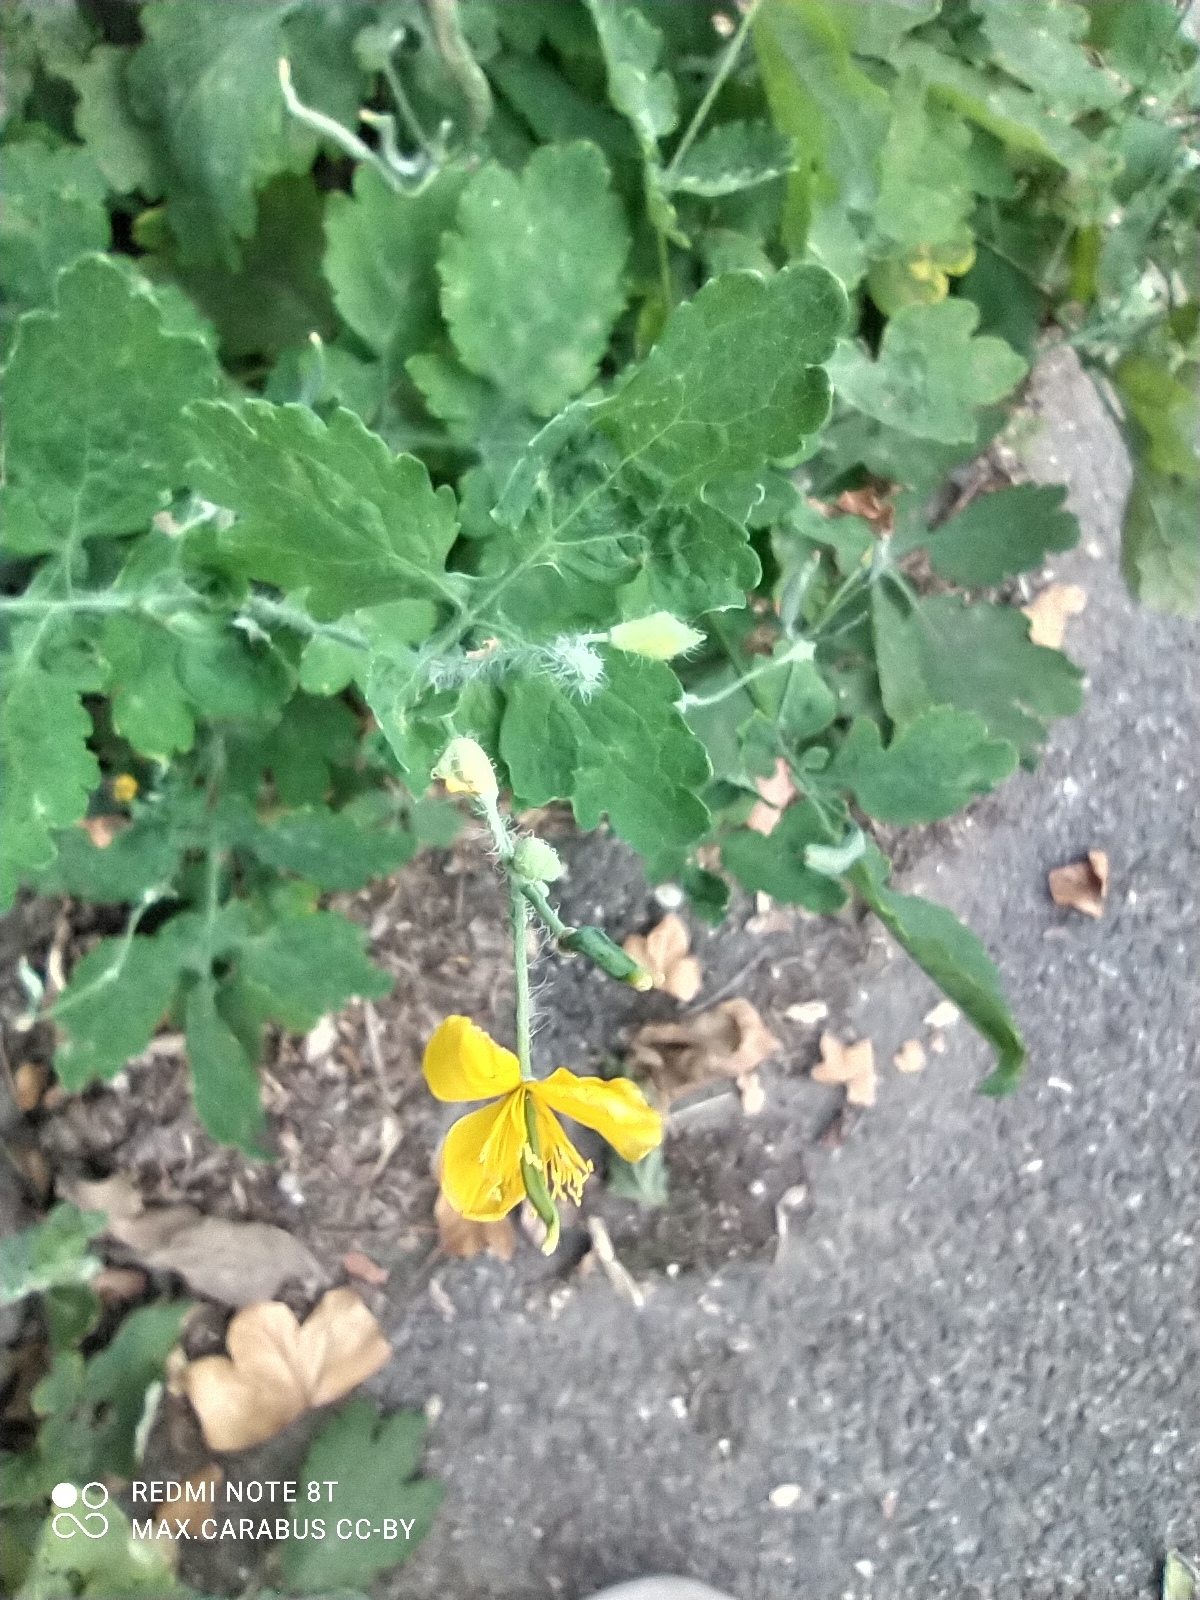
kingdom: Plantae
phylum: Tracheophyta
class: Magnoliopsida
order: Ranunculales
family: Papaveraceae
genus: Chelidonium
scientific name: Chelidonium majus
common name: Greater celandine
